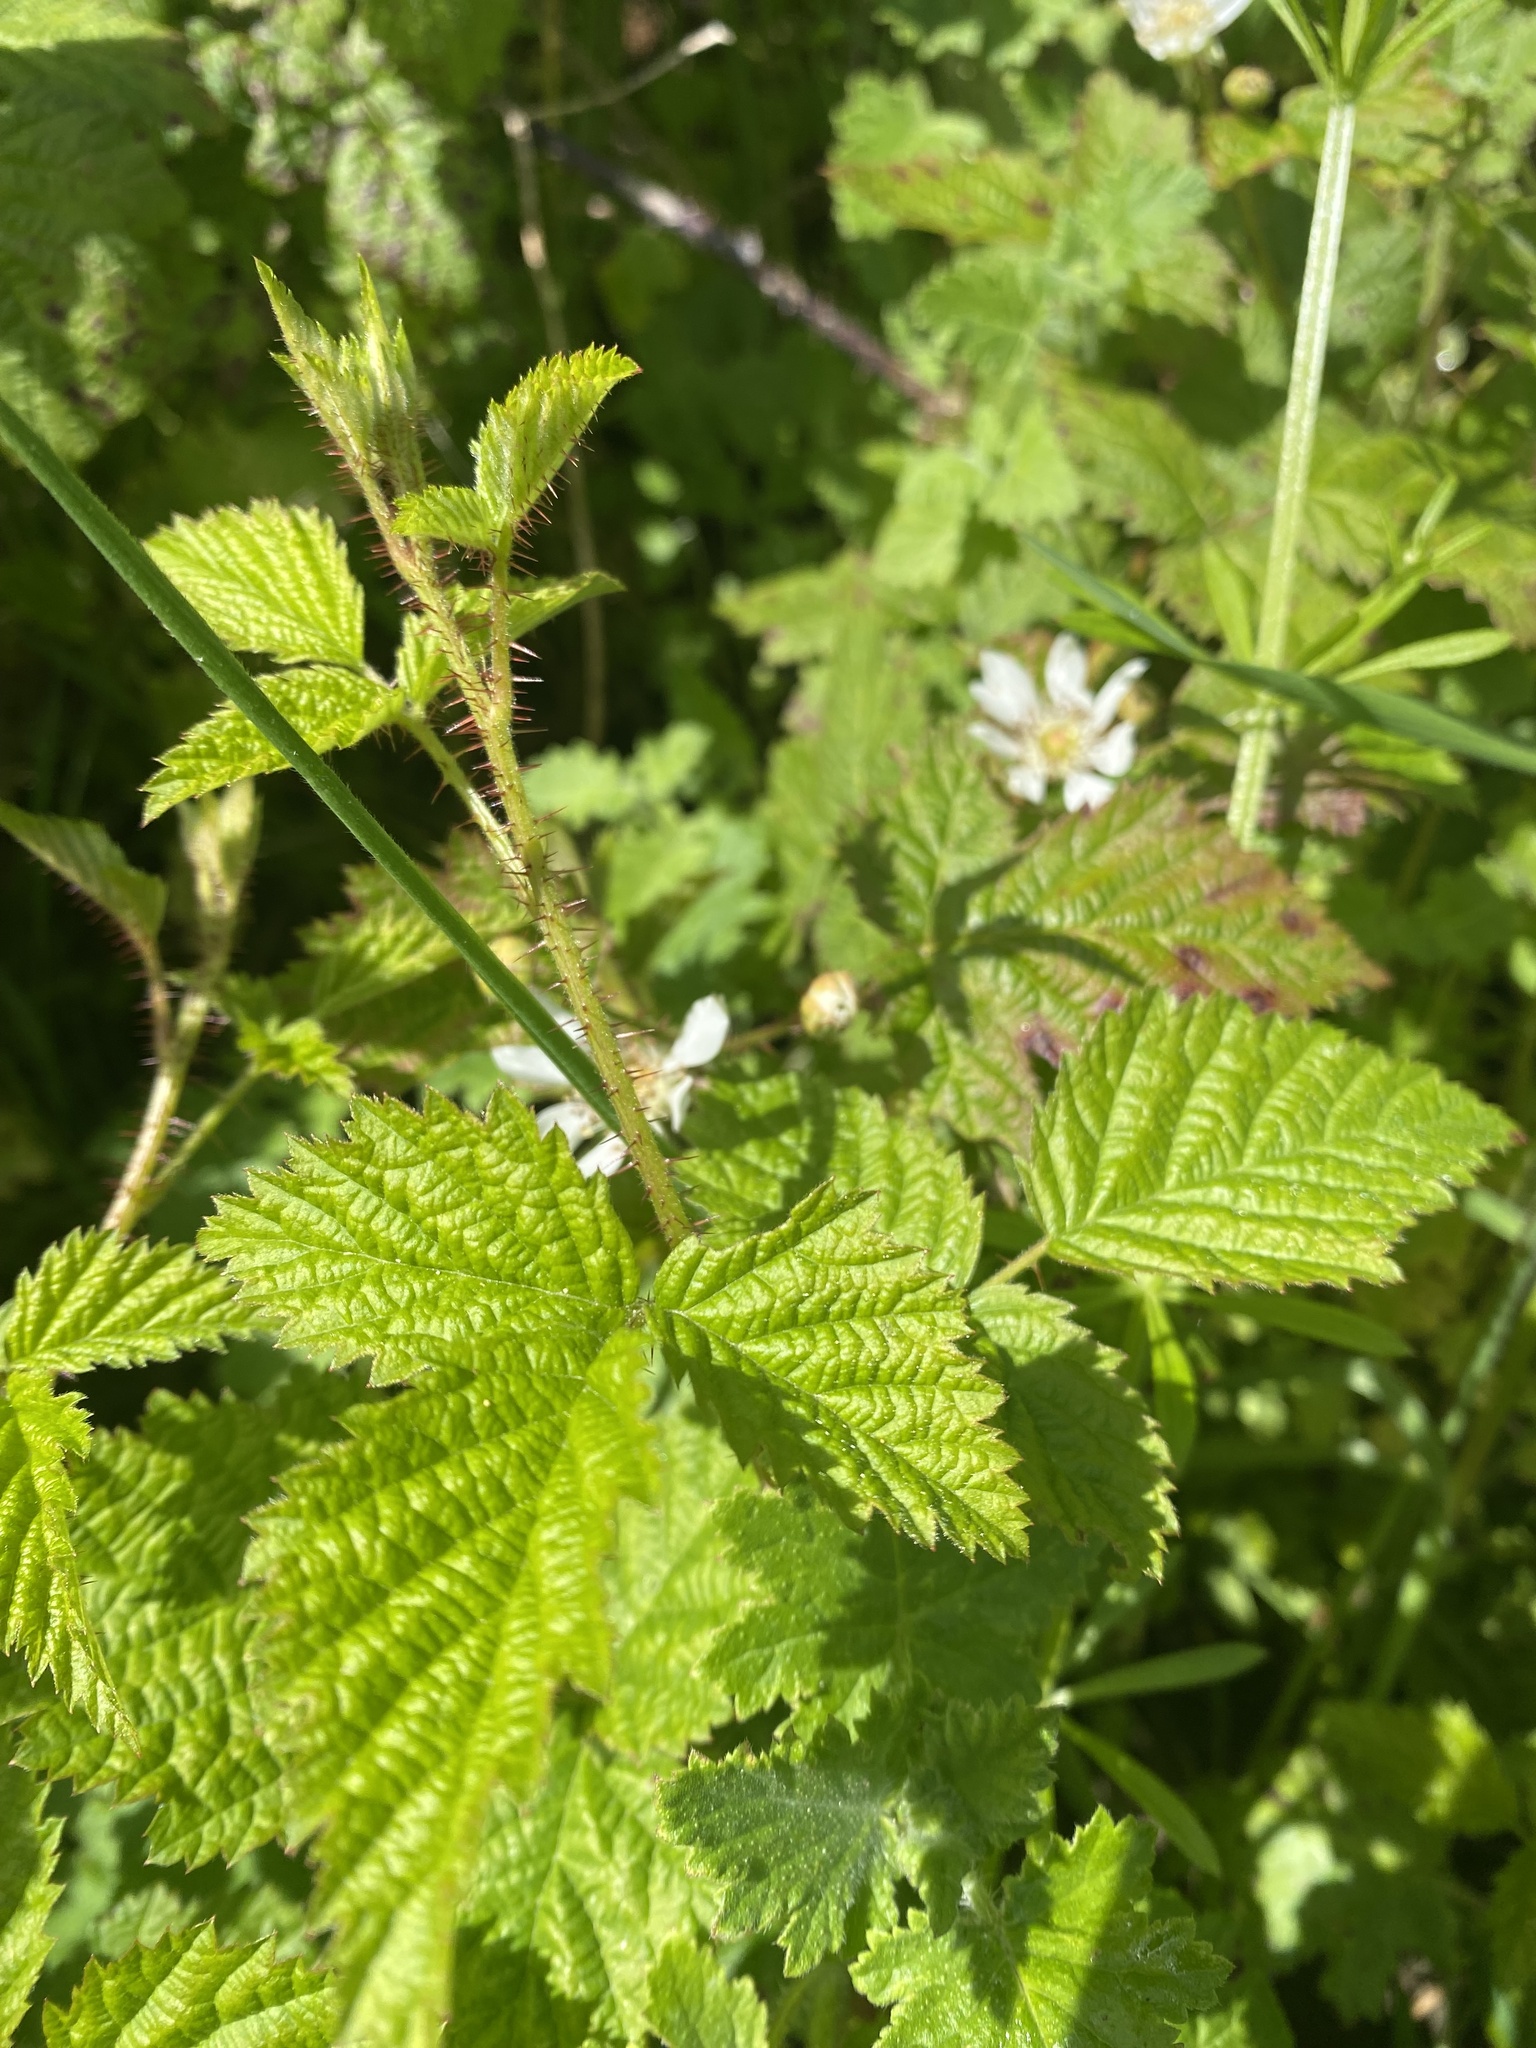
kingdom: Plantae
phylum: Tracheophyta
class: Magnoliopsida
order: Rosales
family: Rosaceae
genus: Rubus
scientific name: Rubus ursinus
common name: Pacific blackberry
